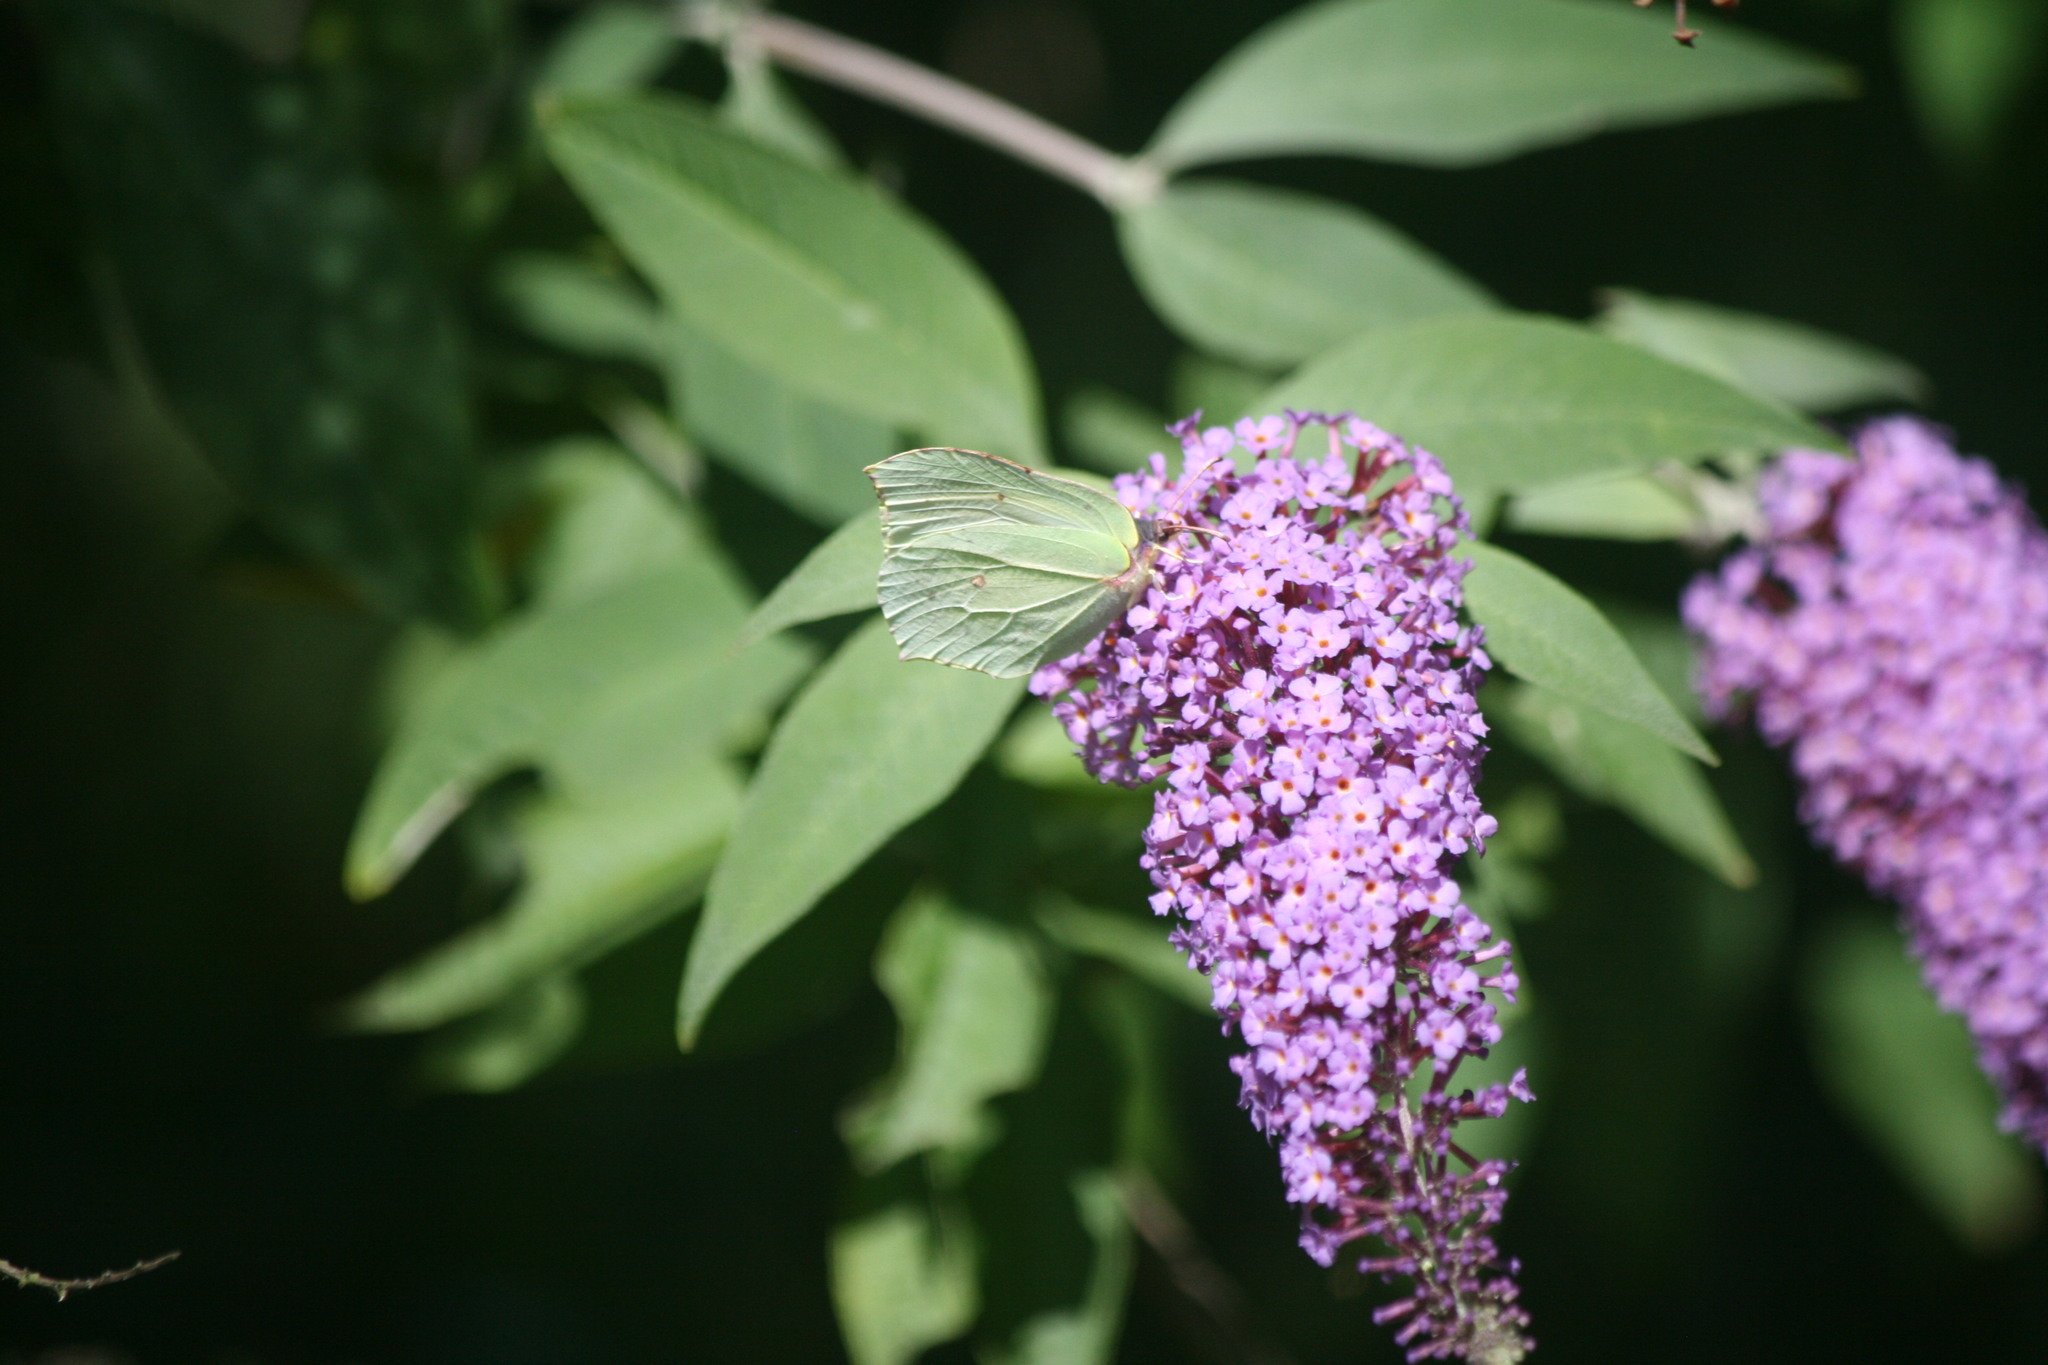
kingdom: Animalia
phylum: Arthropoda
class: Insecta
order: Lepidoptera
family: Pieridae
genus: Gonepteryx
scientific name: Gonepteryx rhamni
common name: Brimstone
